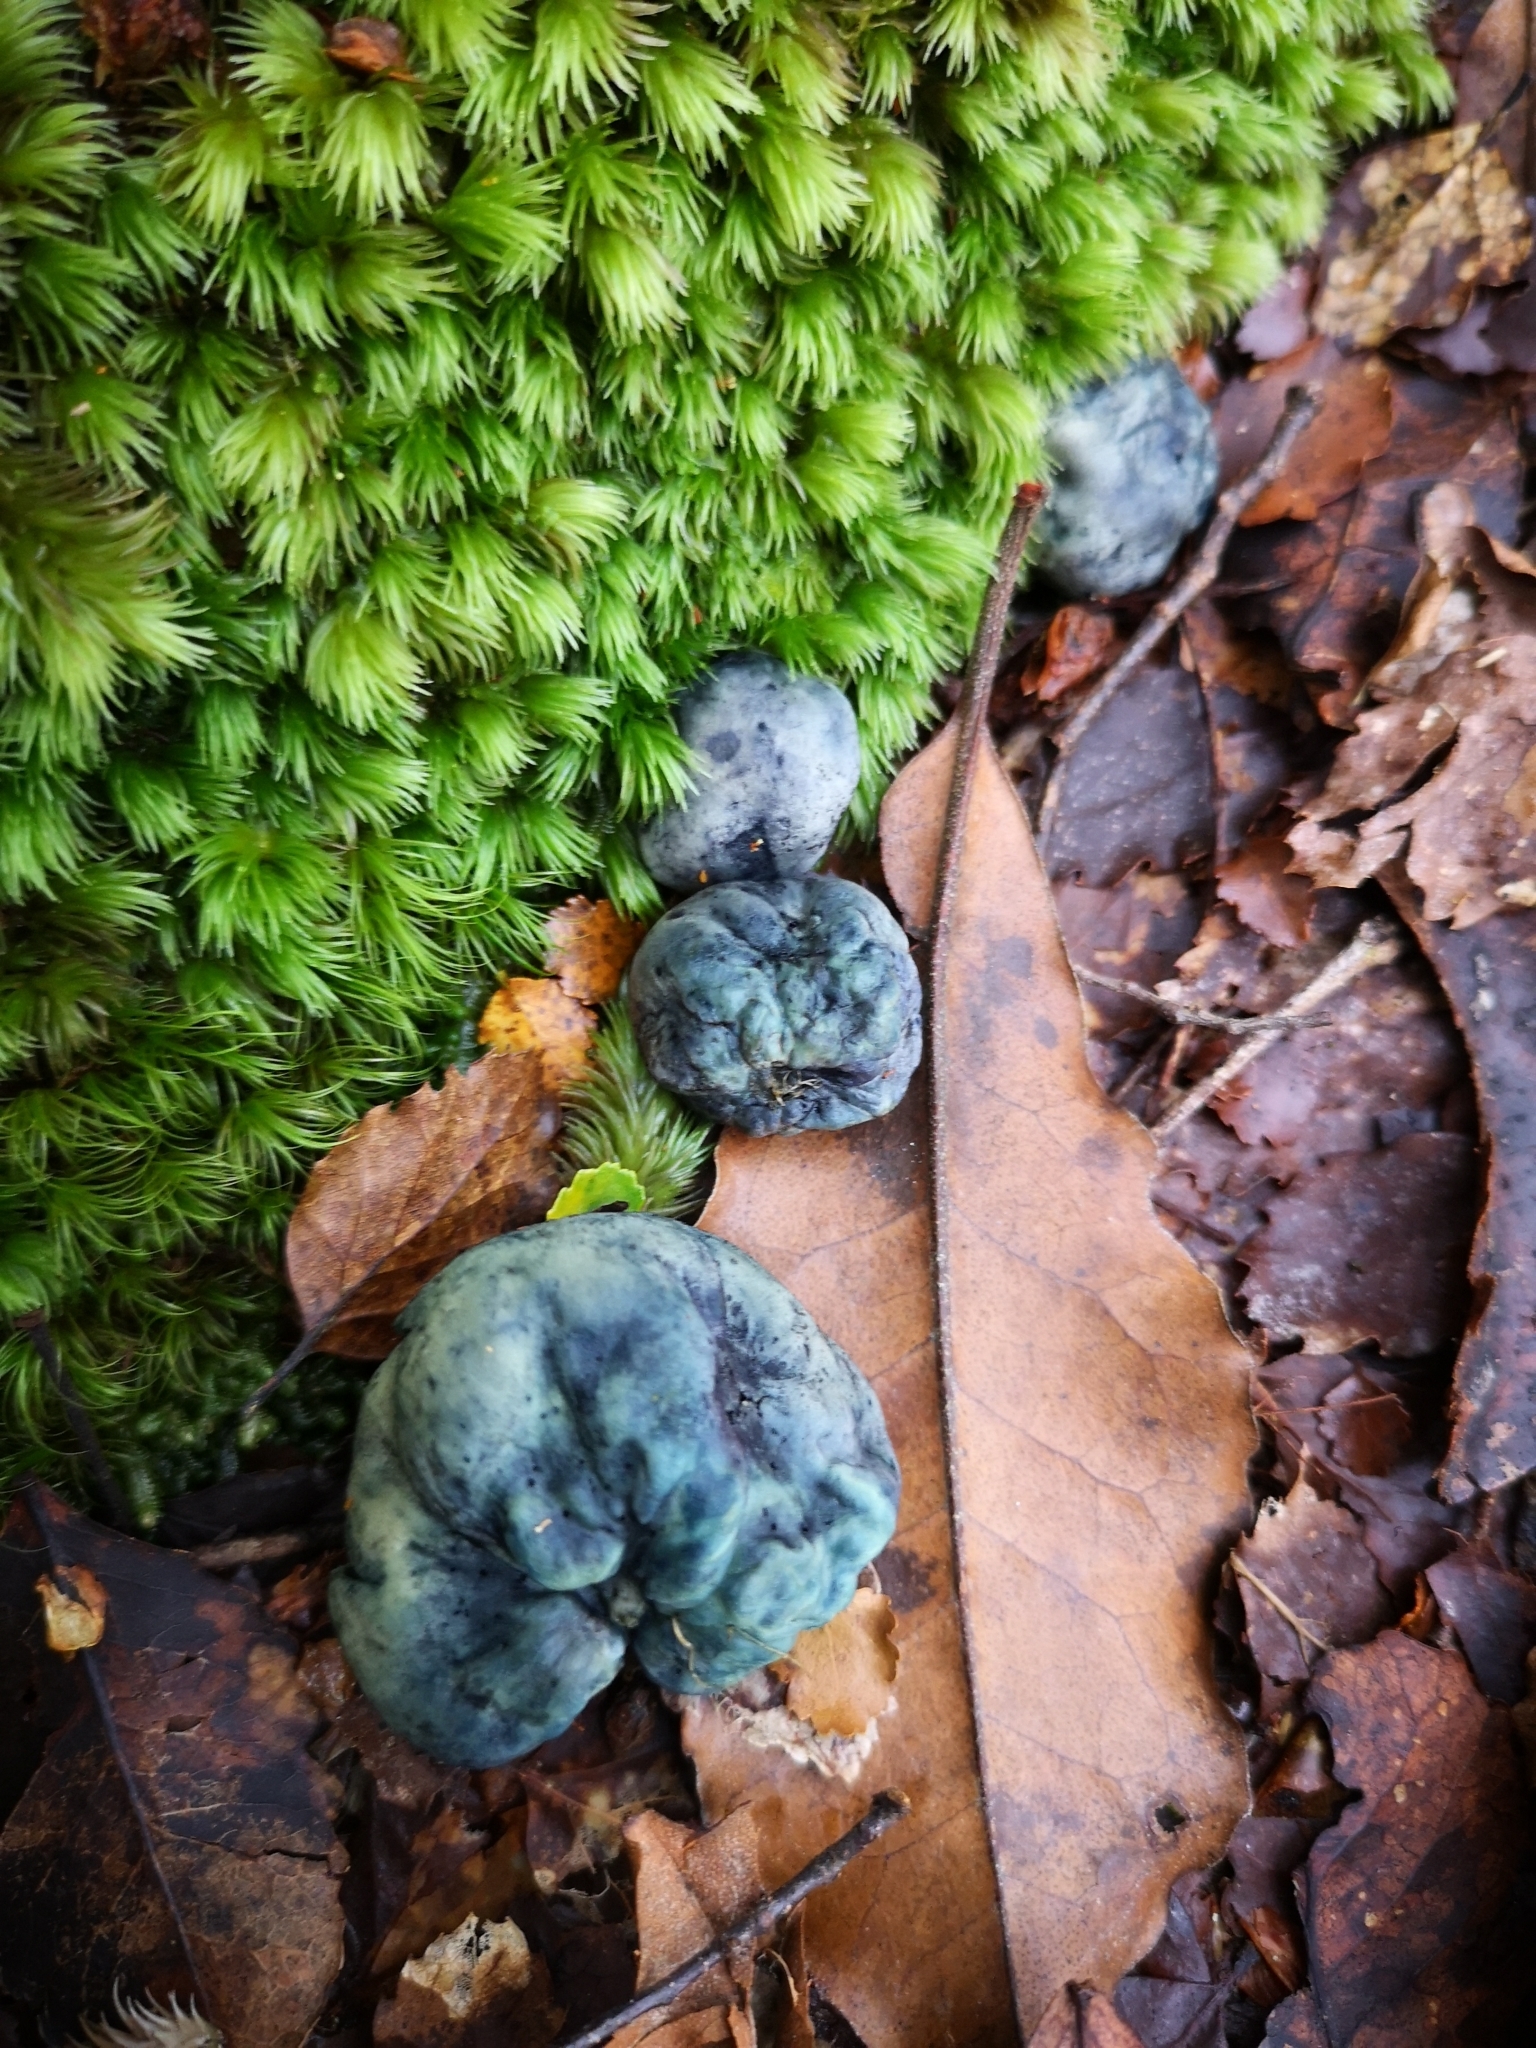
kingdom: Fungi
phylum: Basidiomycota
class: Agaricomycetes
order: Boletales
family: Boletaceae
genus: Leccinum
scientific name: Leccinum pachyderme
